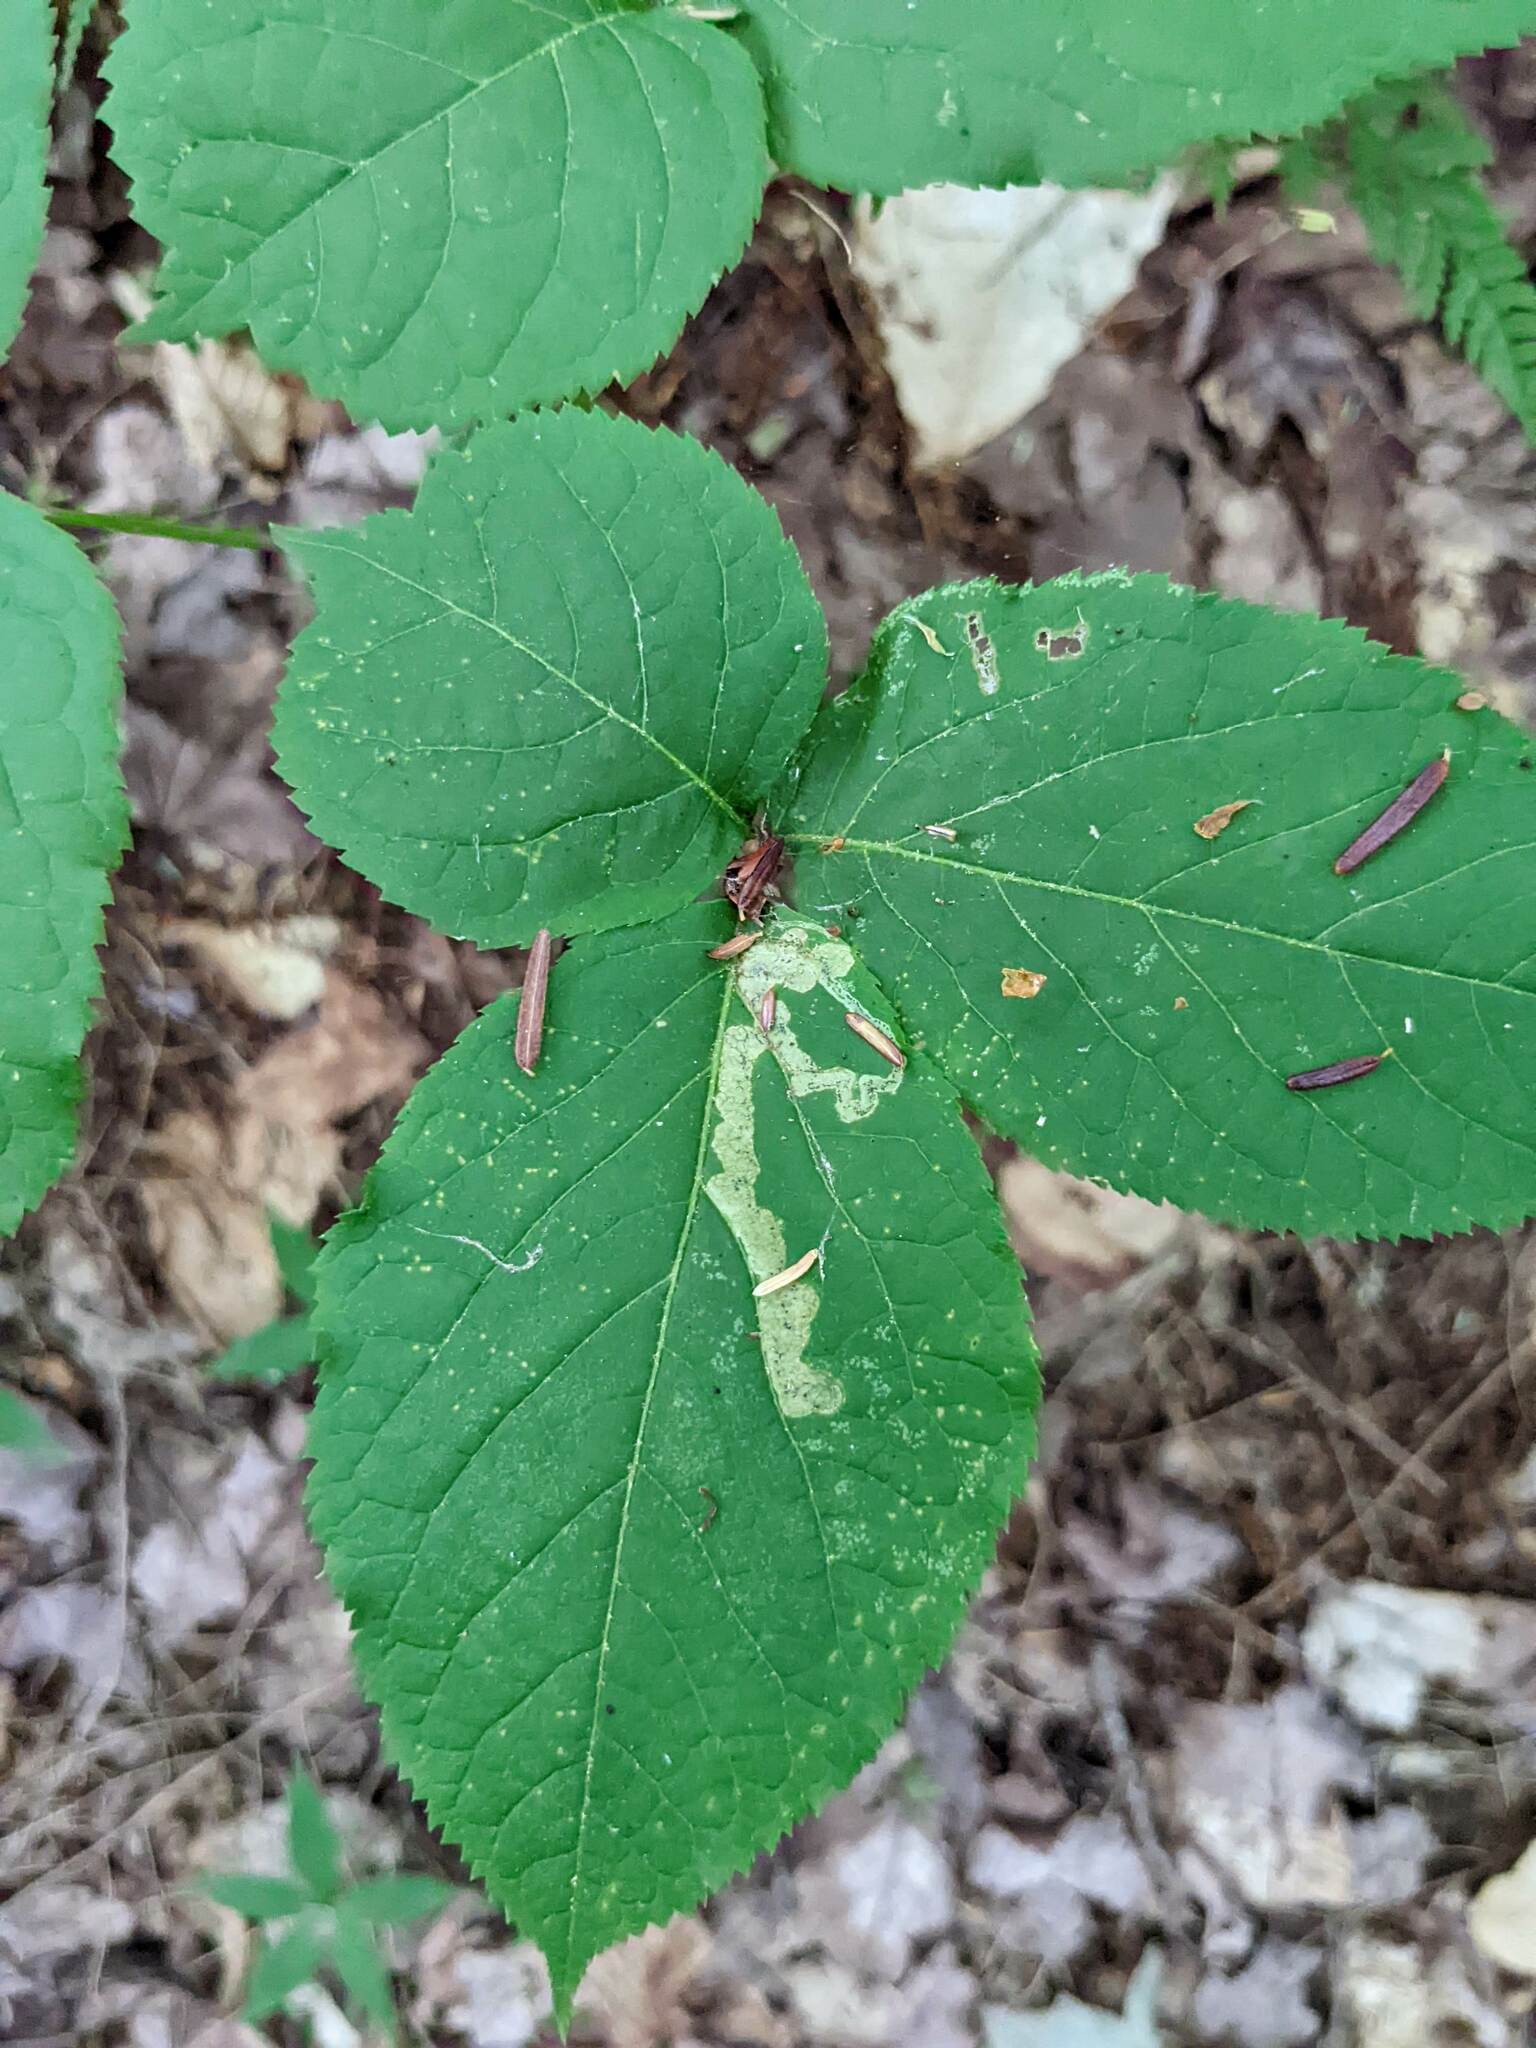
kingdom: Animalia
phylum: Arthropoda
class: Insecta
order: Diptera
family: Agromyzidae
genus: Phytomyza
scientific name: Phytomyza aralivora
